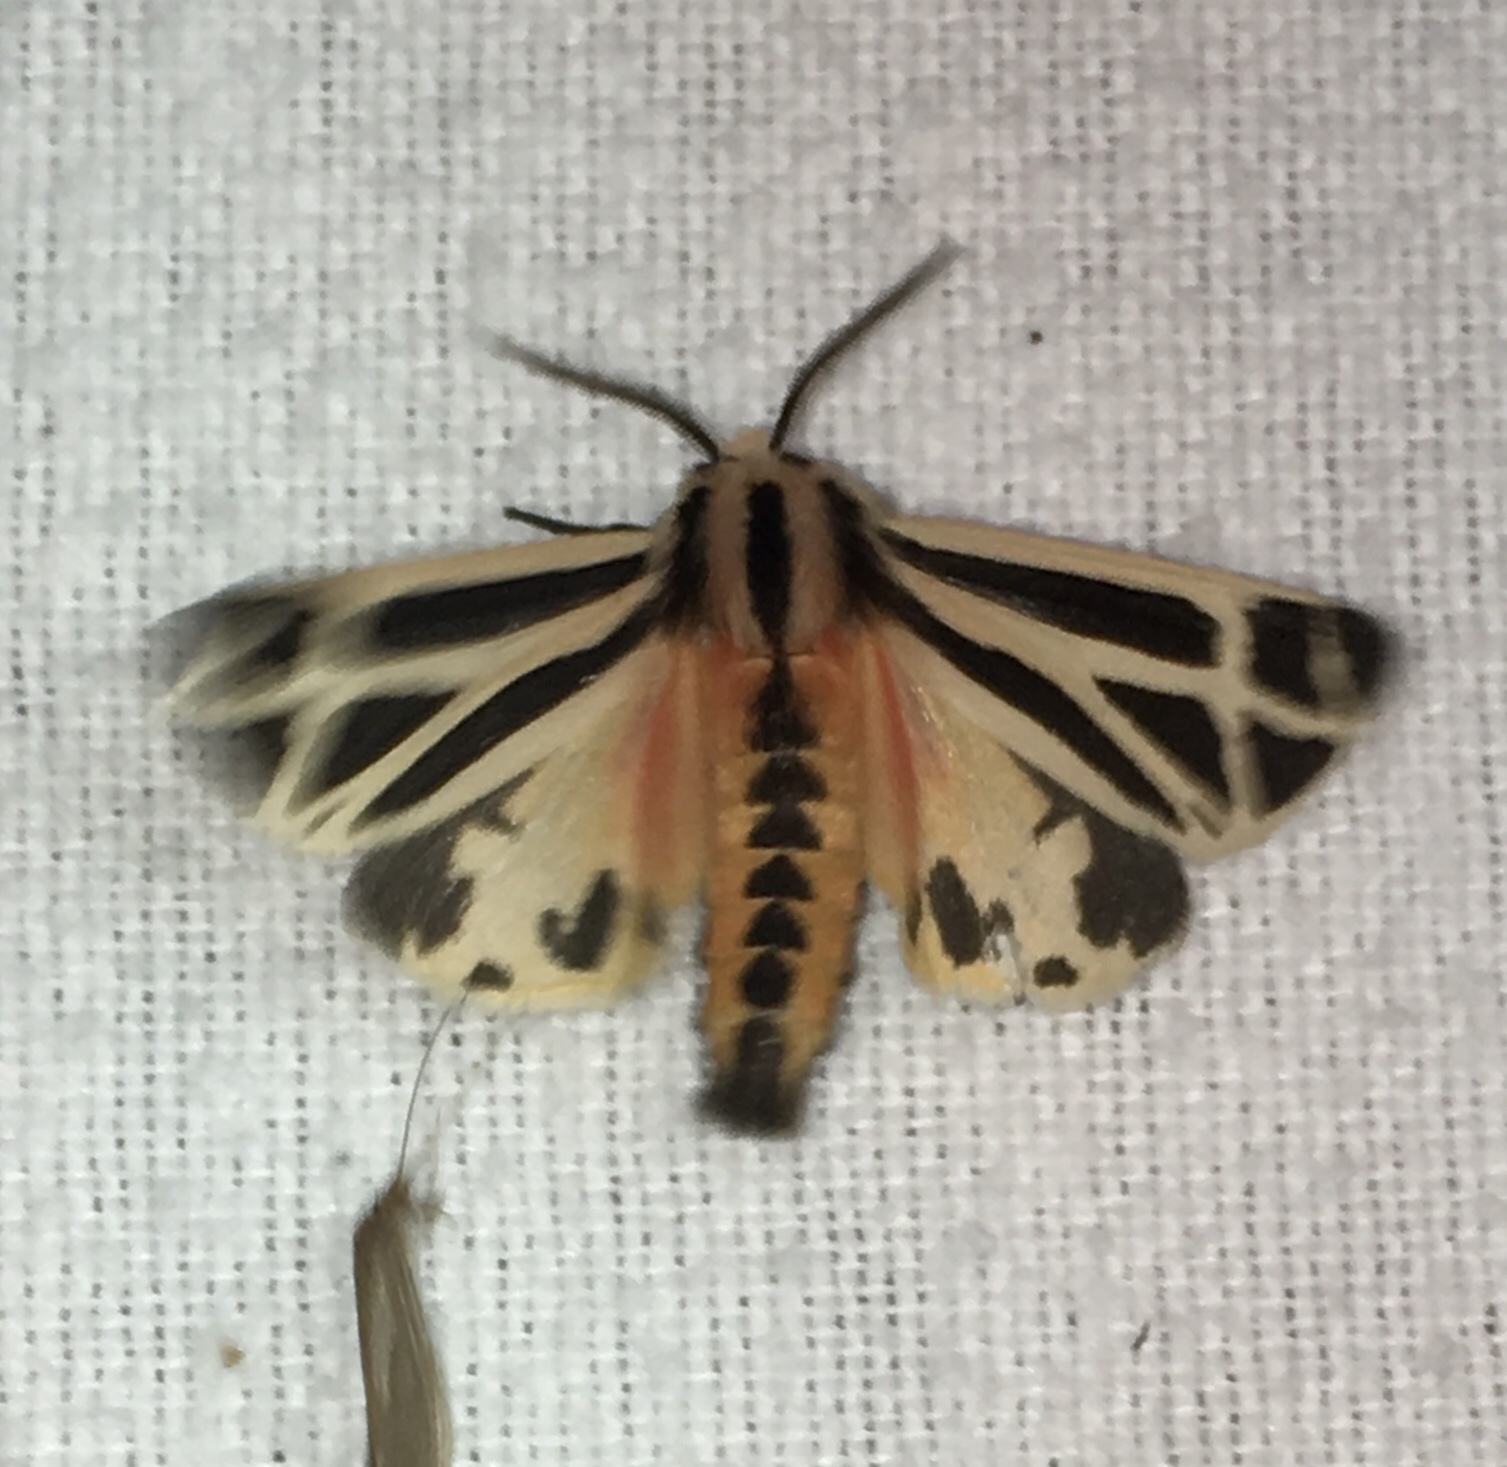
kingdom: Animalia
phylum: Arthropoda
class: Insecta
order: Lepidoptera
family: Erebidae
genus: Apantesis
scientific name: Apantesis phalerata
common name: Harnessed tiger moth
